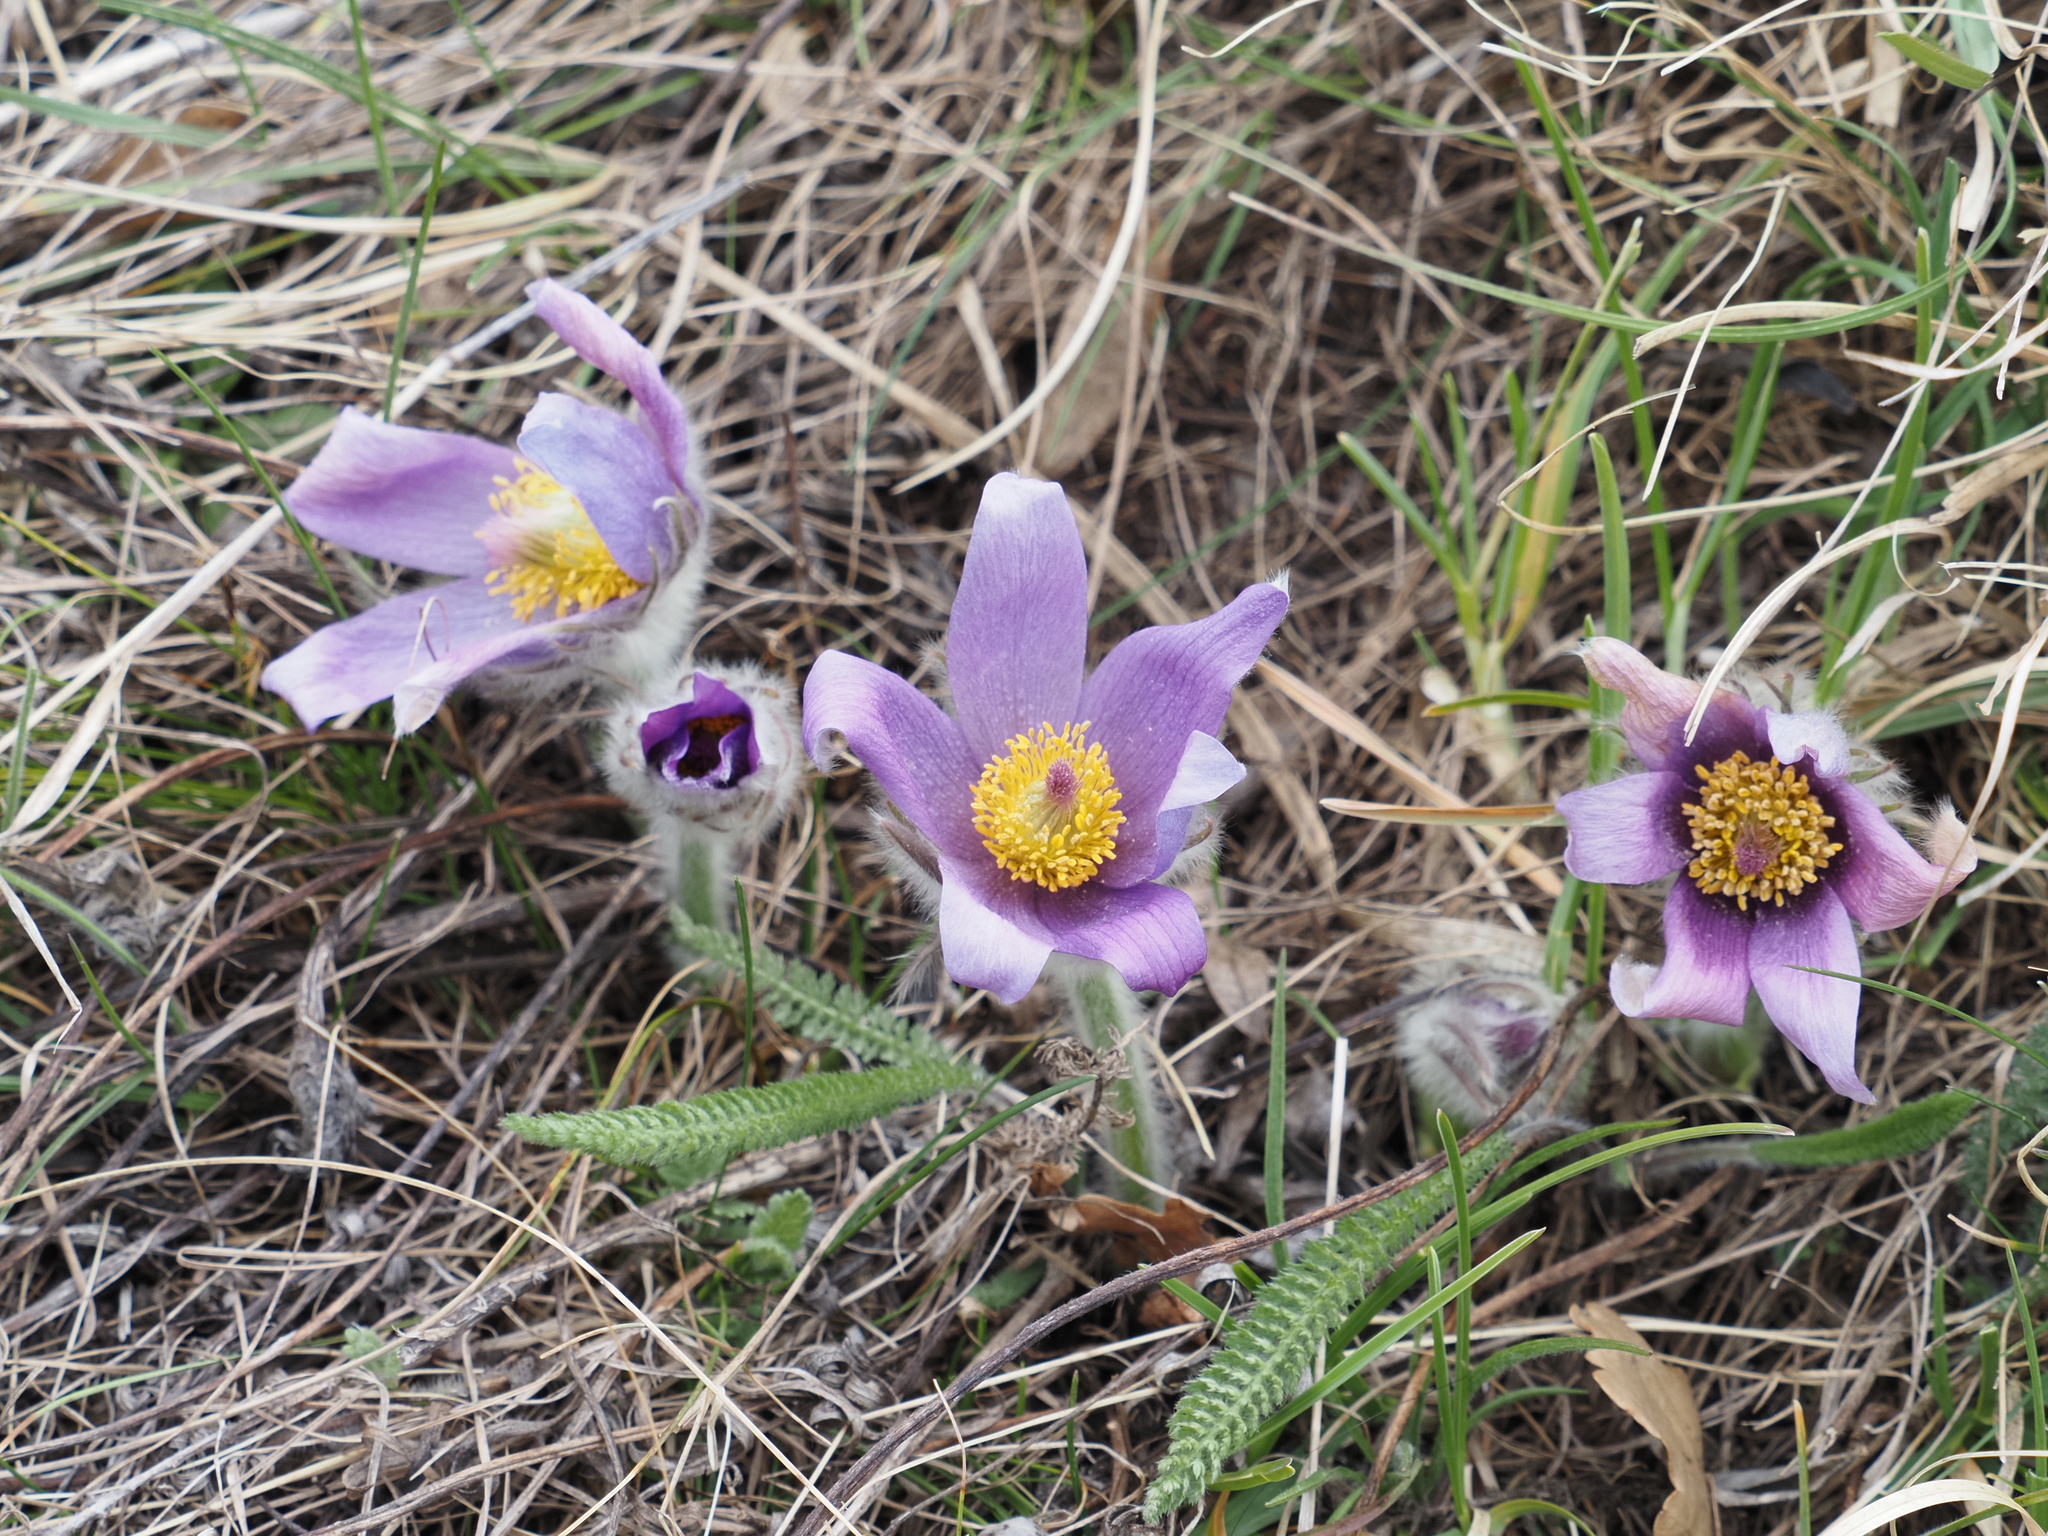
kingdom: Plantae
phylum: Tracheophyta
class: Magnoliopsida
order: Ranunculales
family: Ranunculaceae
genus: Pulsatilla
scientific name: Pulsatilla grandis
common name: Greater pasque flower
